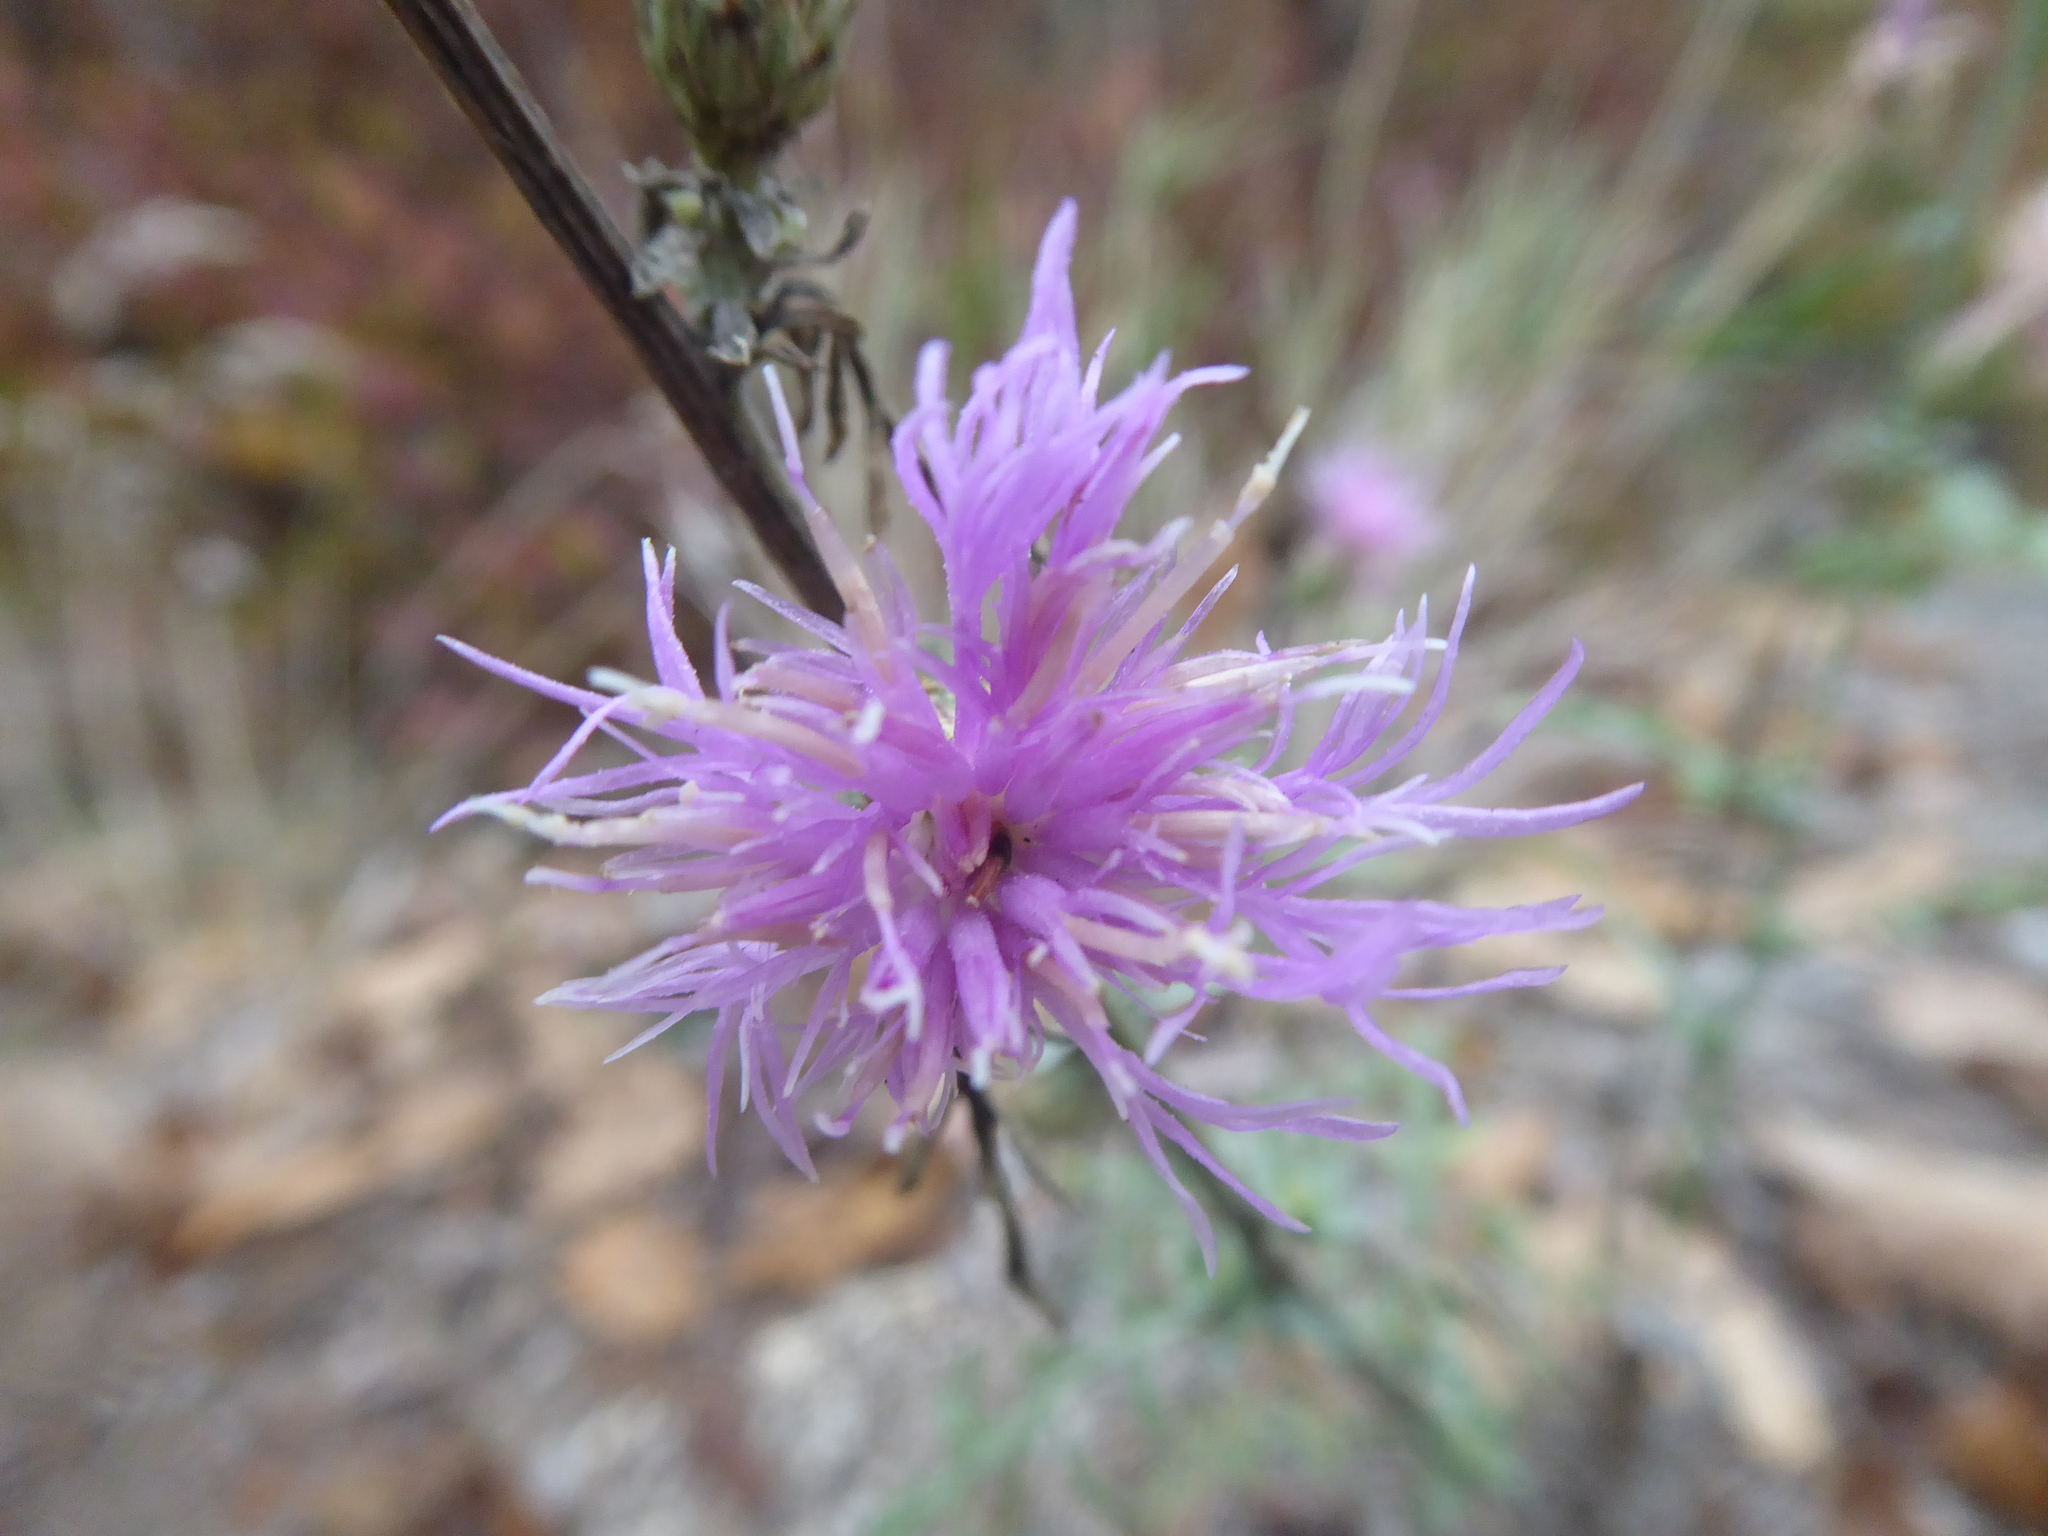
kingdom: Plantae
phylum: Tracheophyta
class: Magnoliopsida
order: Asterales
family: Asteraceae
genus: Centaurea
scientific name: Centaurea stoebe
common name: Spotted knapweed
